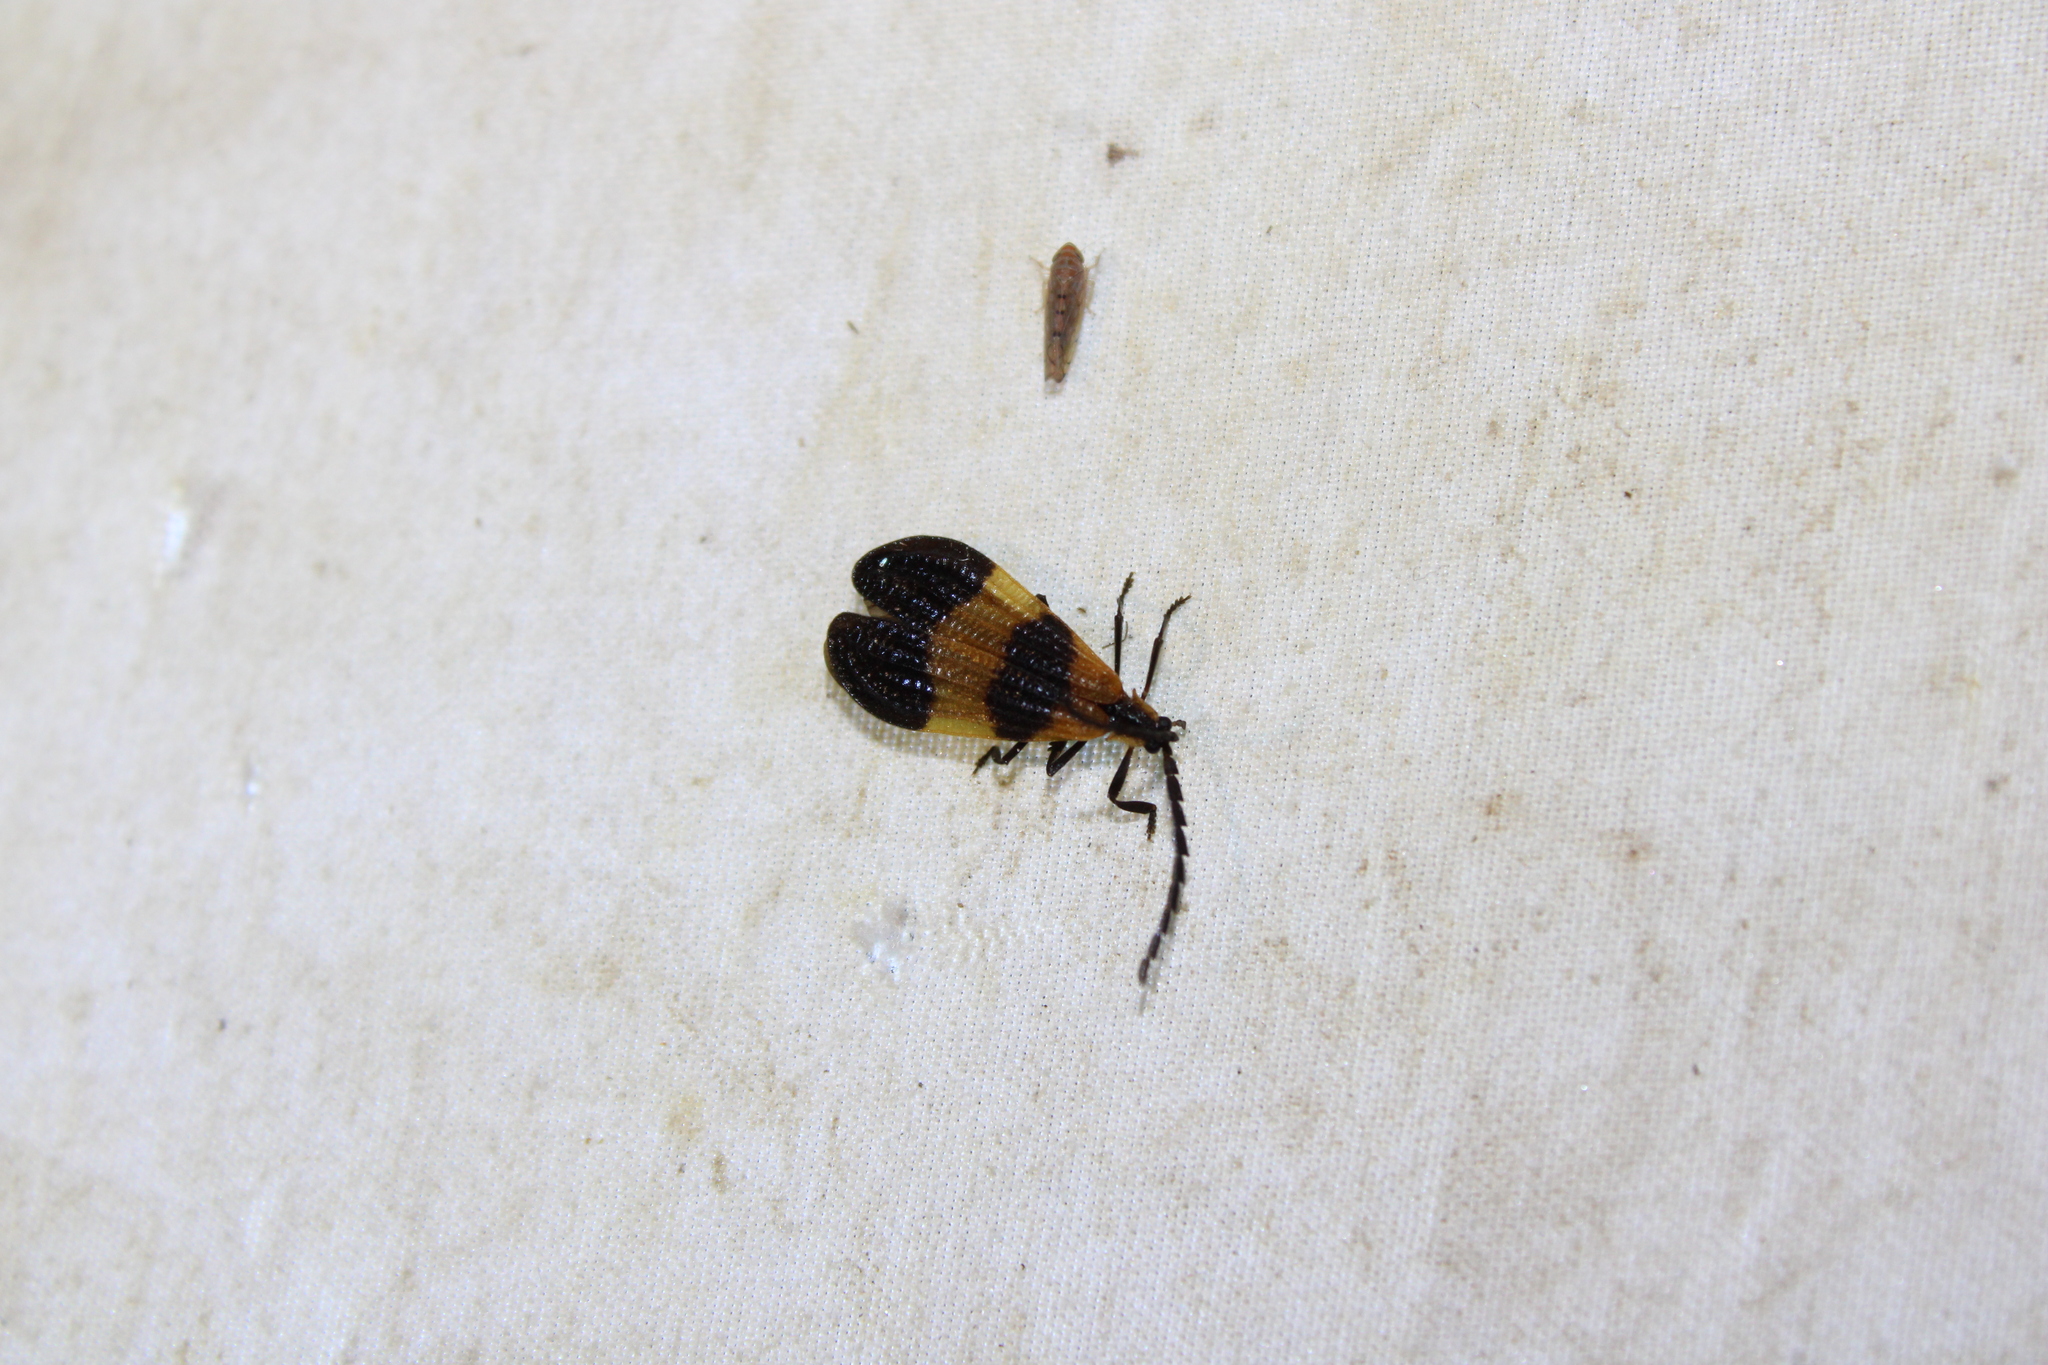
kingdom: Animalia
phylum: Arthropoda
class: Insecta
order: Coleoptera
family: Lycidae
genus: Calopteron
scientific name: Calopteron terminale
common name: End band net-winged beetle
